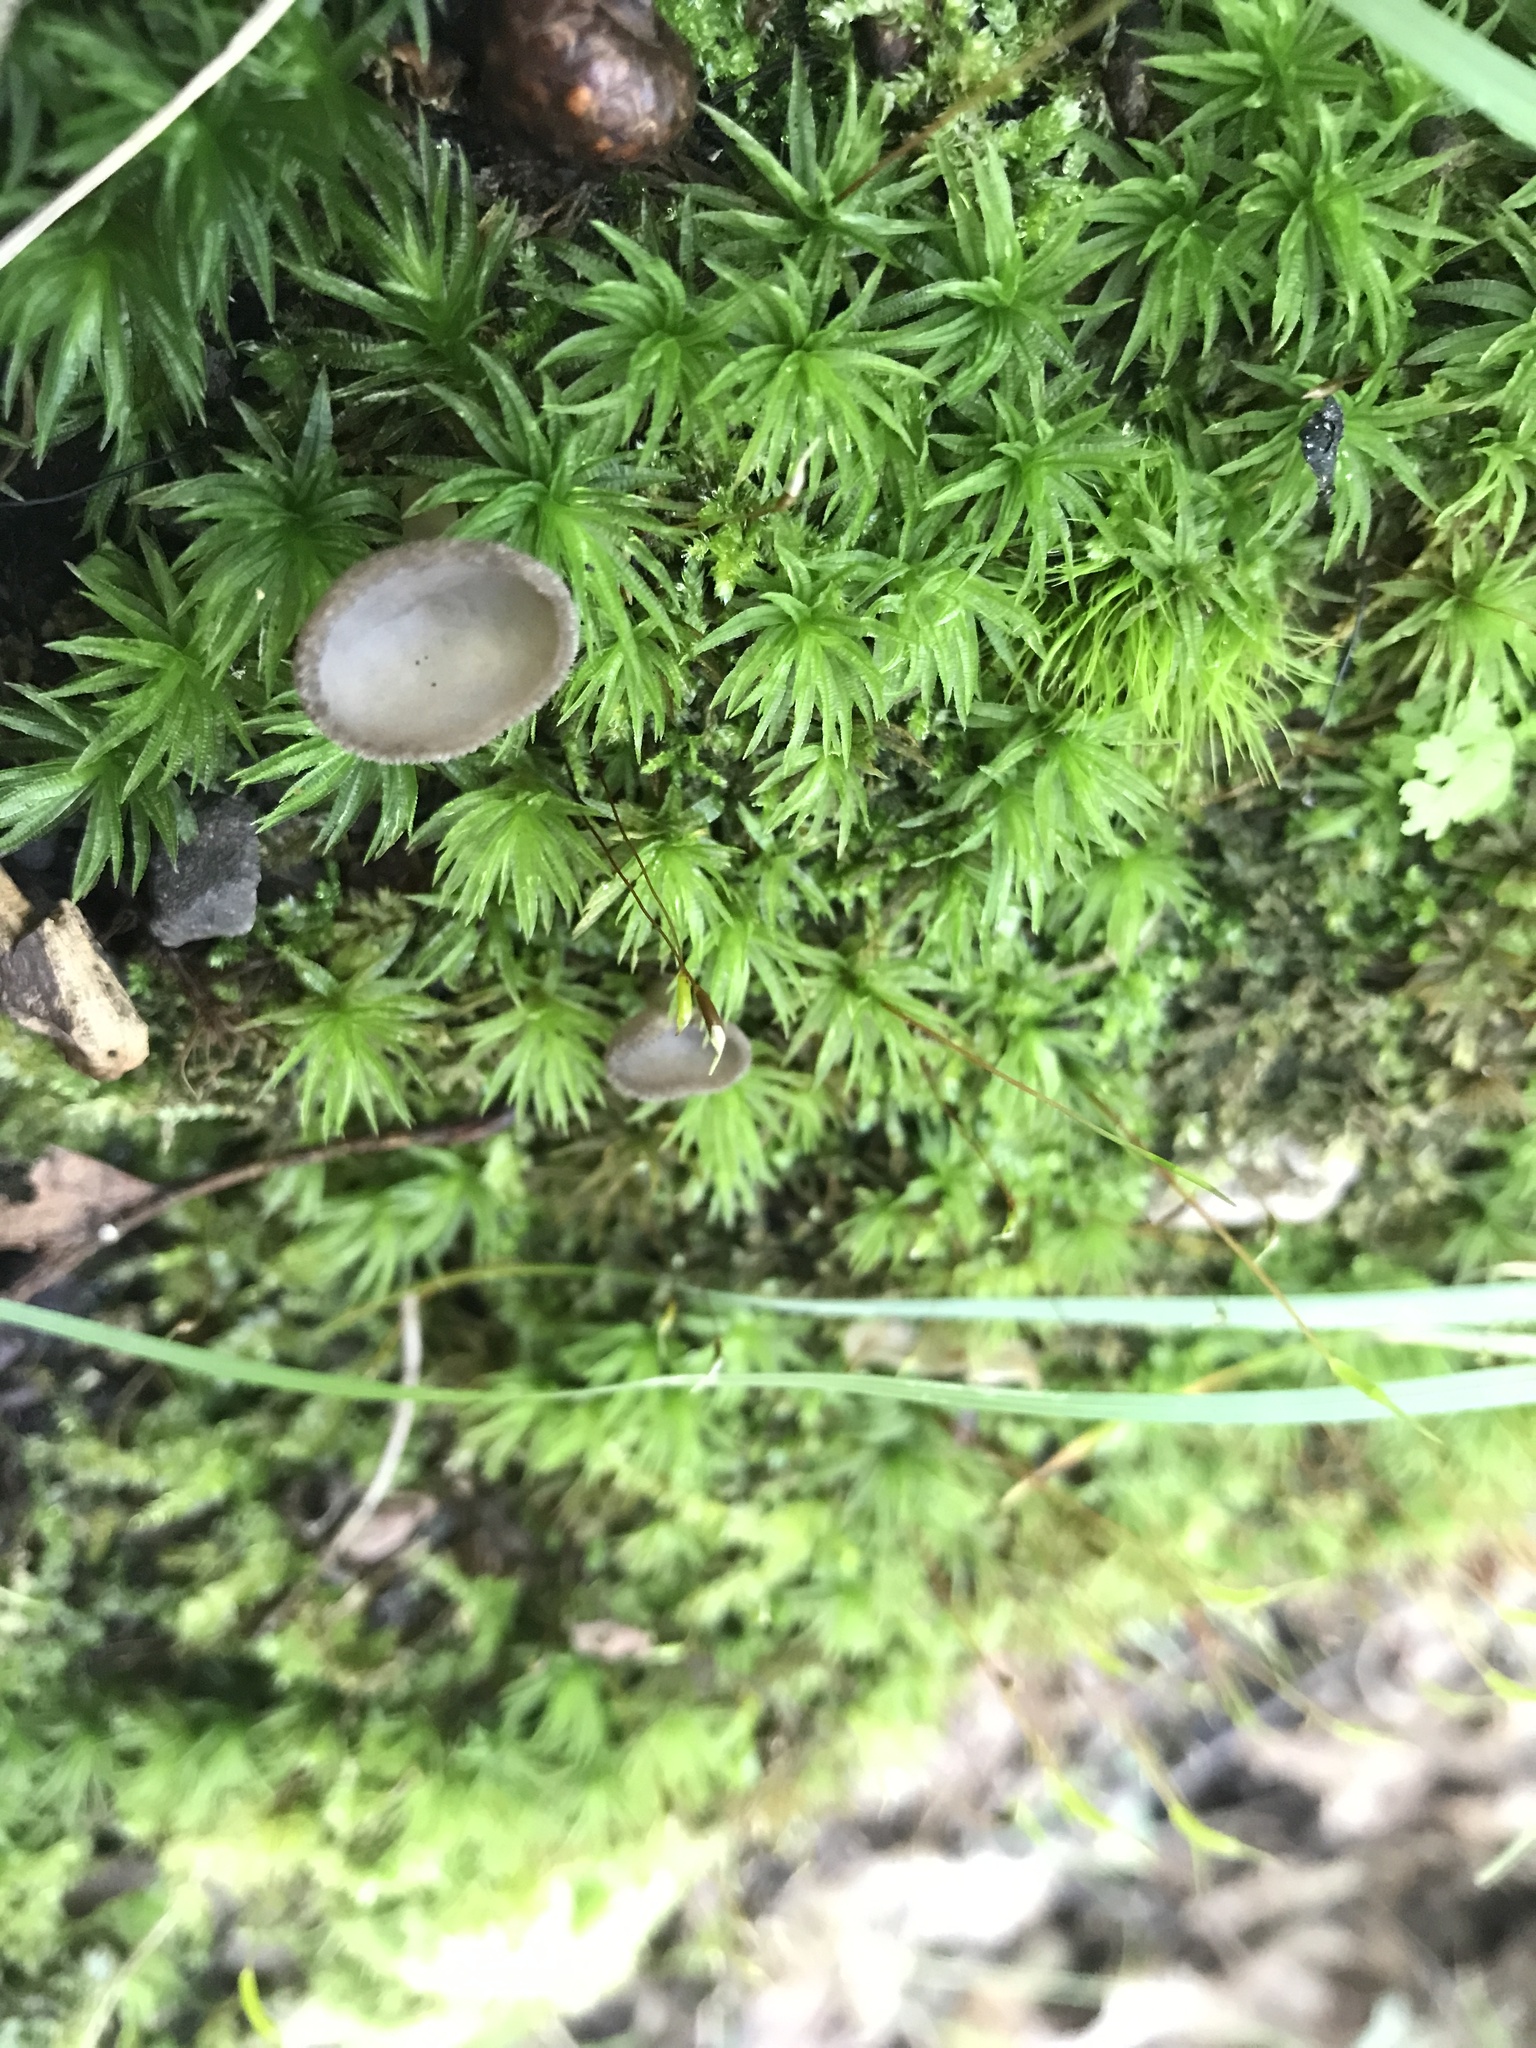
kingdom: Fungi
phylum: Ascomycota
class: Pezizomycetes
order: Pezizales
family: Helvellaceae
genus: Helvella
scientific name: Helvella macropus
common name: Felt saddle
